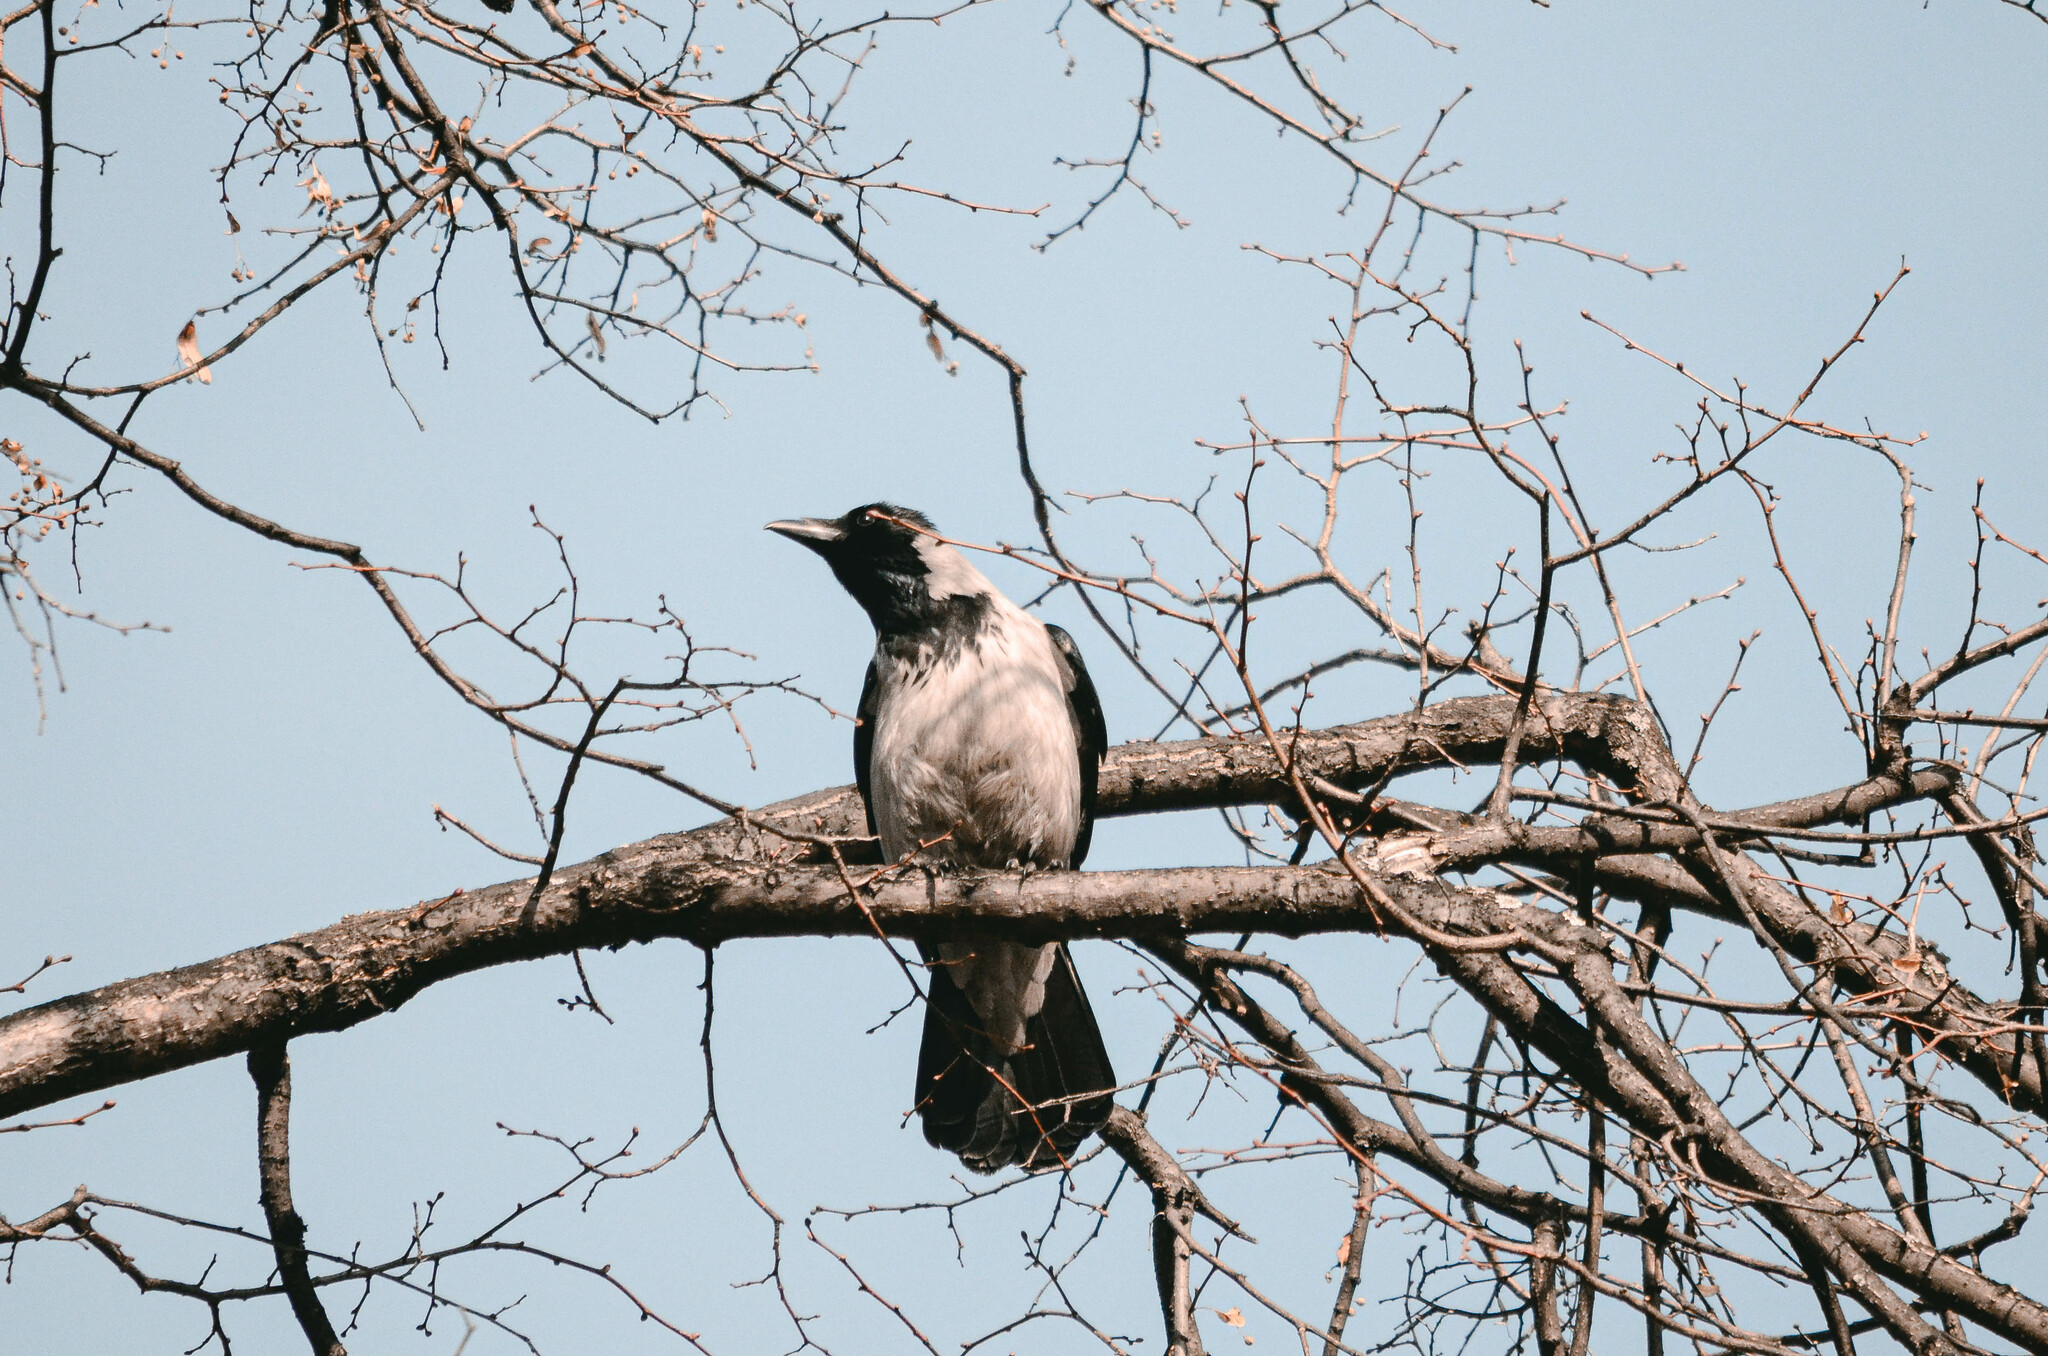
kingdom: Animalia
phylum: Chordata
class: Aves
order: Passeriformes
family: Corvidae
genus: Corvus
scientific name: Corvus cornix
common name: Hooded crow
